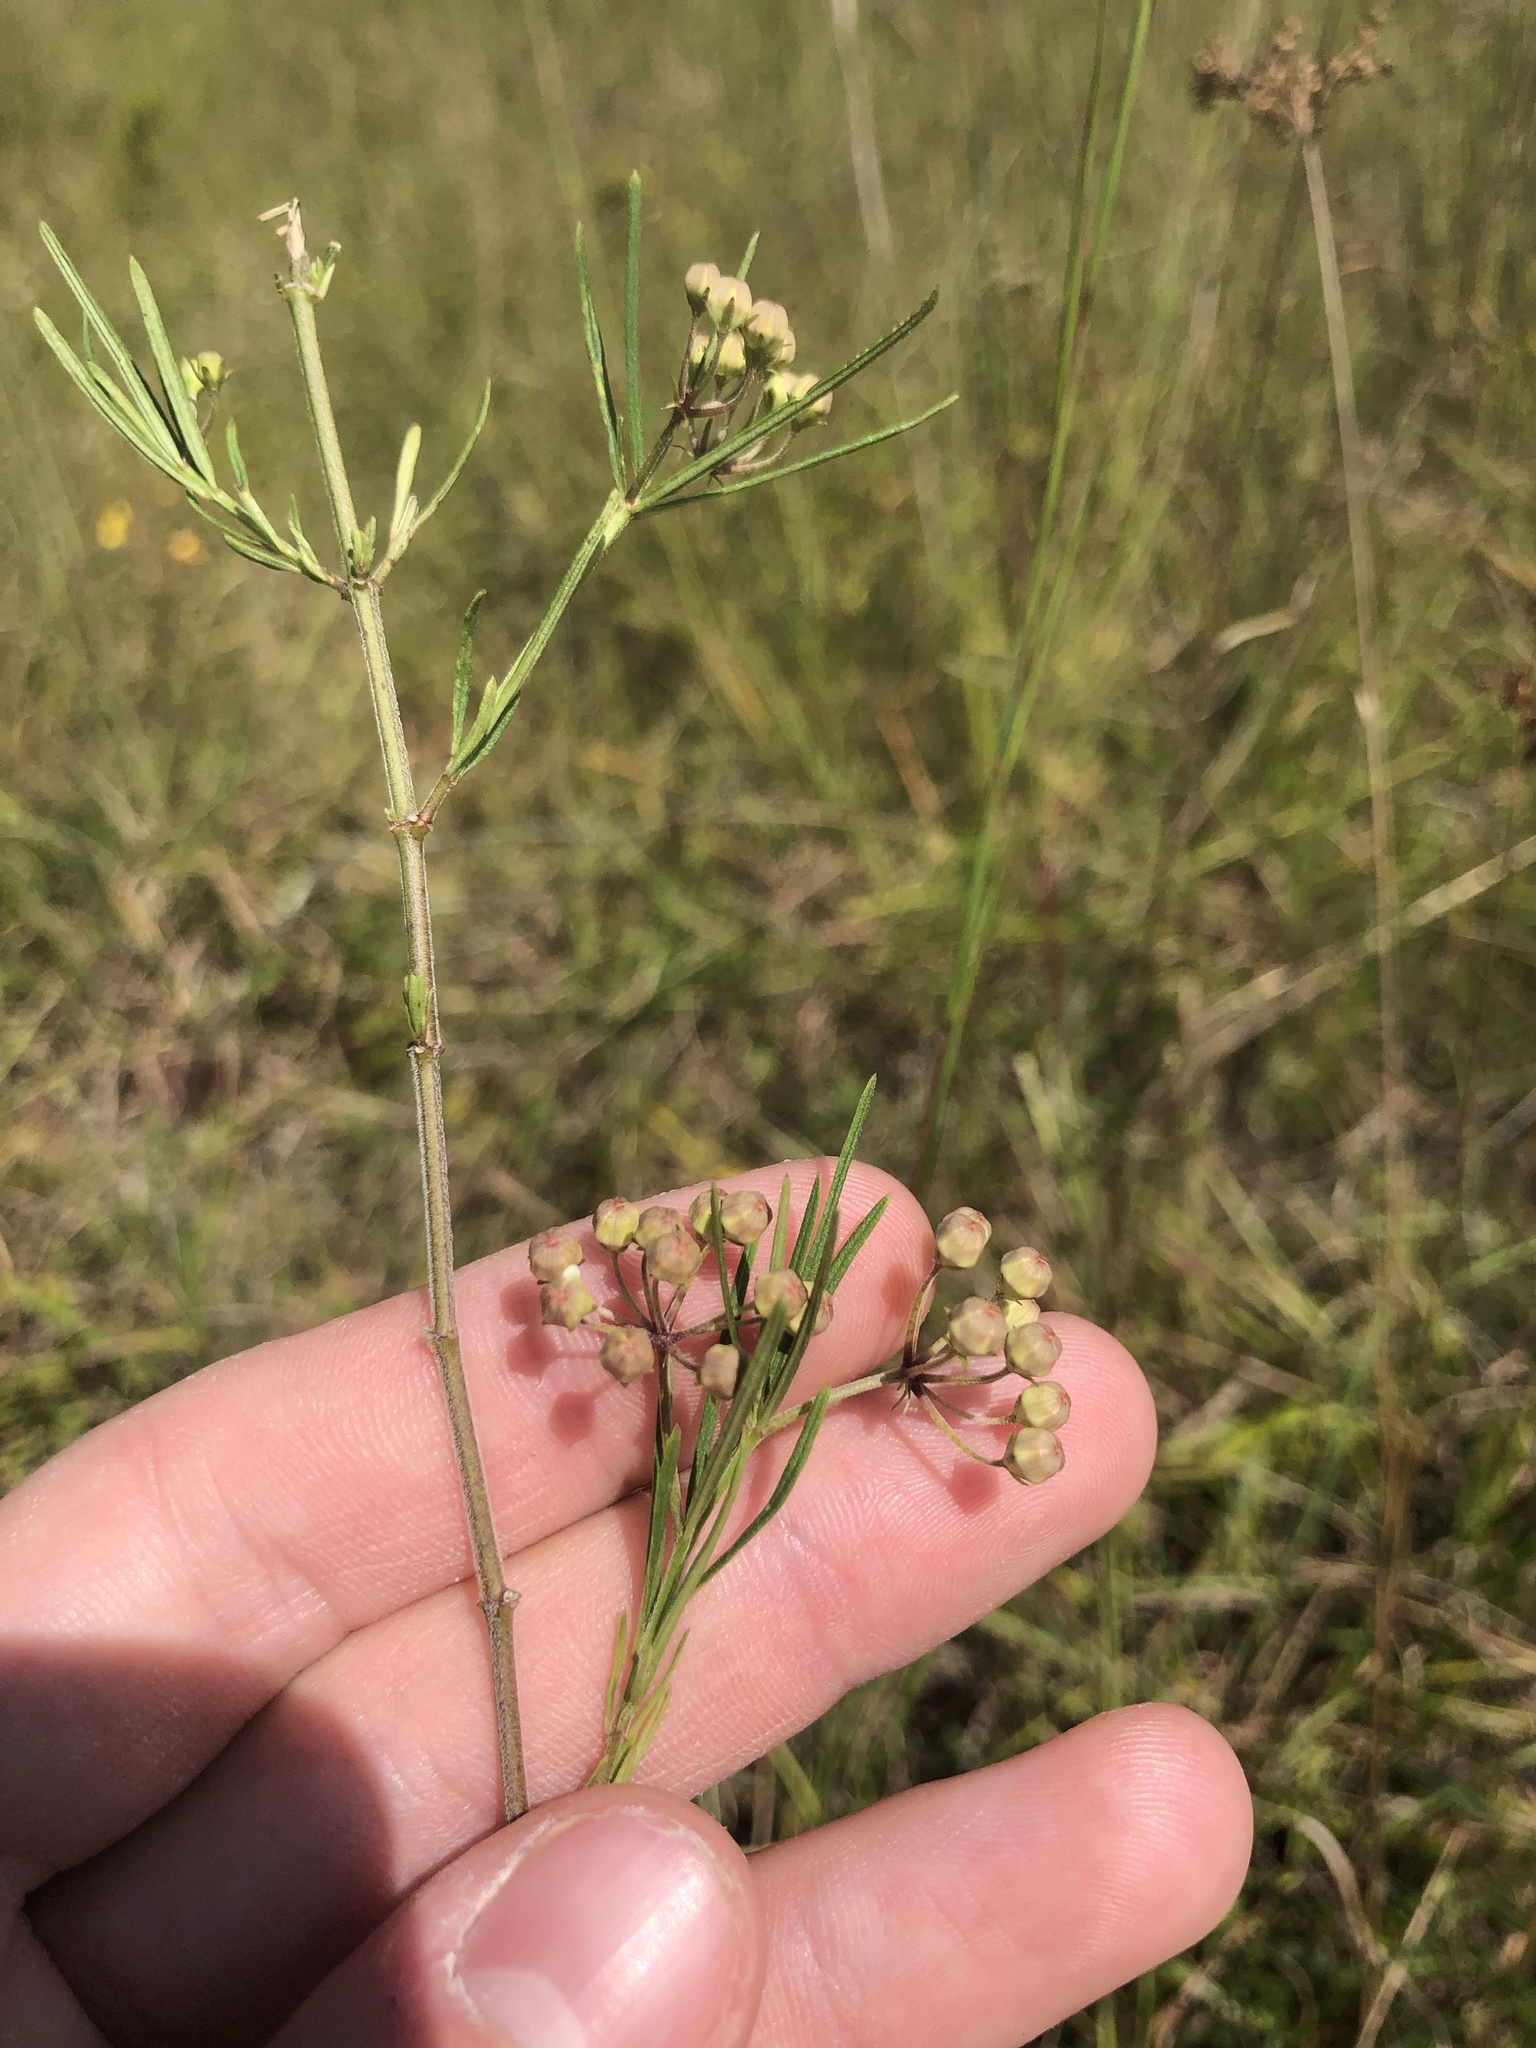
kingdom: Plantae
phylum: Tracheophyta
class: Magnoliopsida
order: Gentianales
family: Apocynaceae
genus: Asclepias
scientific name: Asclepias verticillata
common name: Eastern whorled milkweed
